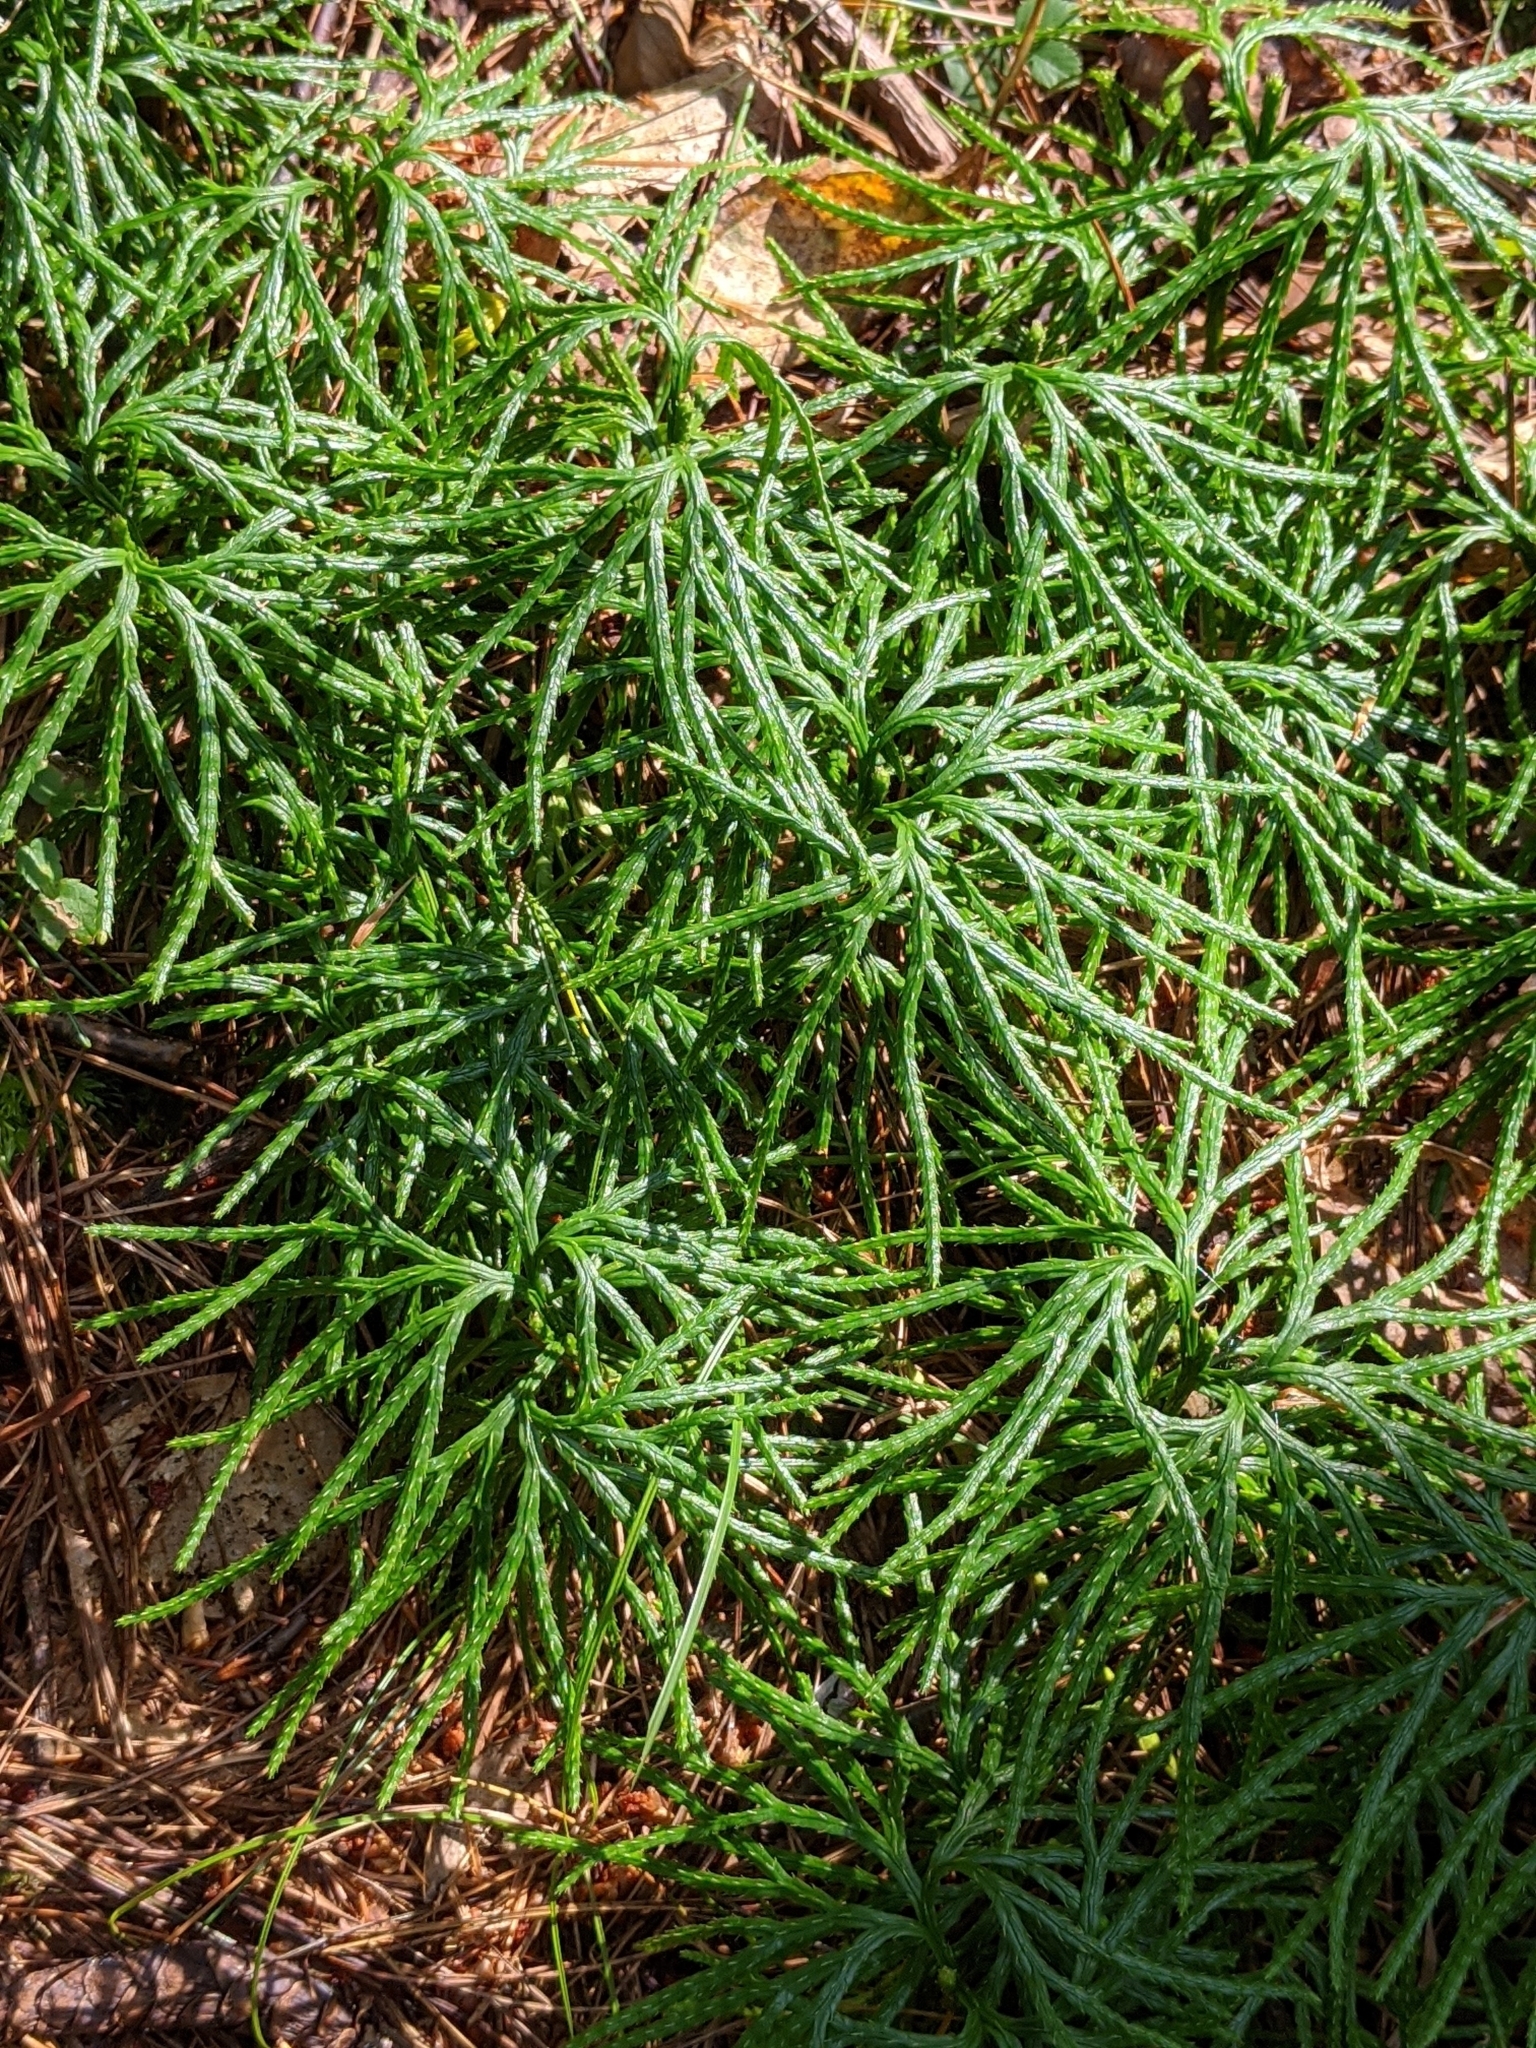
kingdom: Plantae
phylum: Tracheophyta
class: Lycopodiopsida
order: Lycopodiales
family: Lycopodiaceae
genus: Diphasiastrum
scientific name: Diphasiastrum digitatum
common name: Southern running-pine
